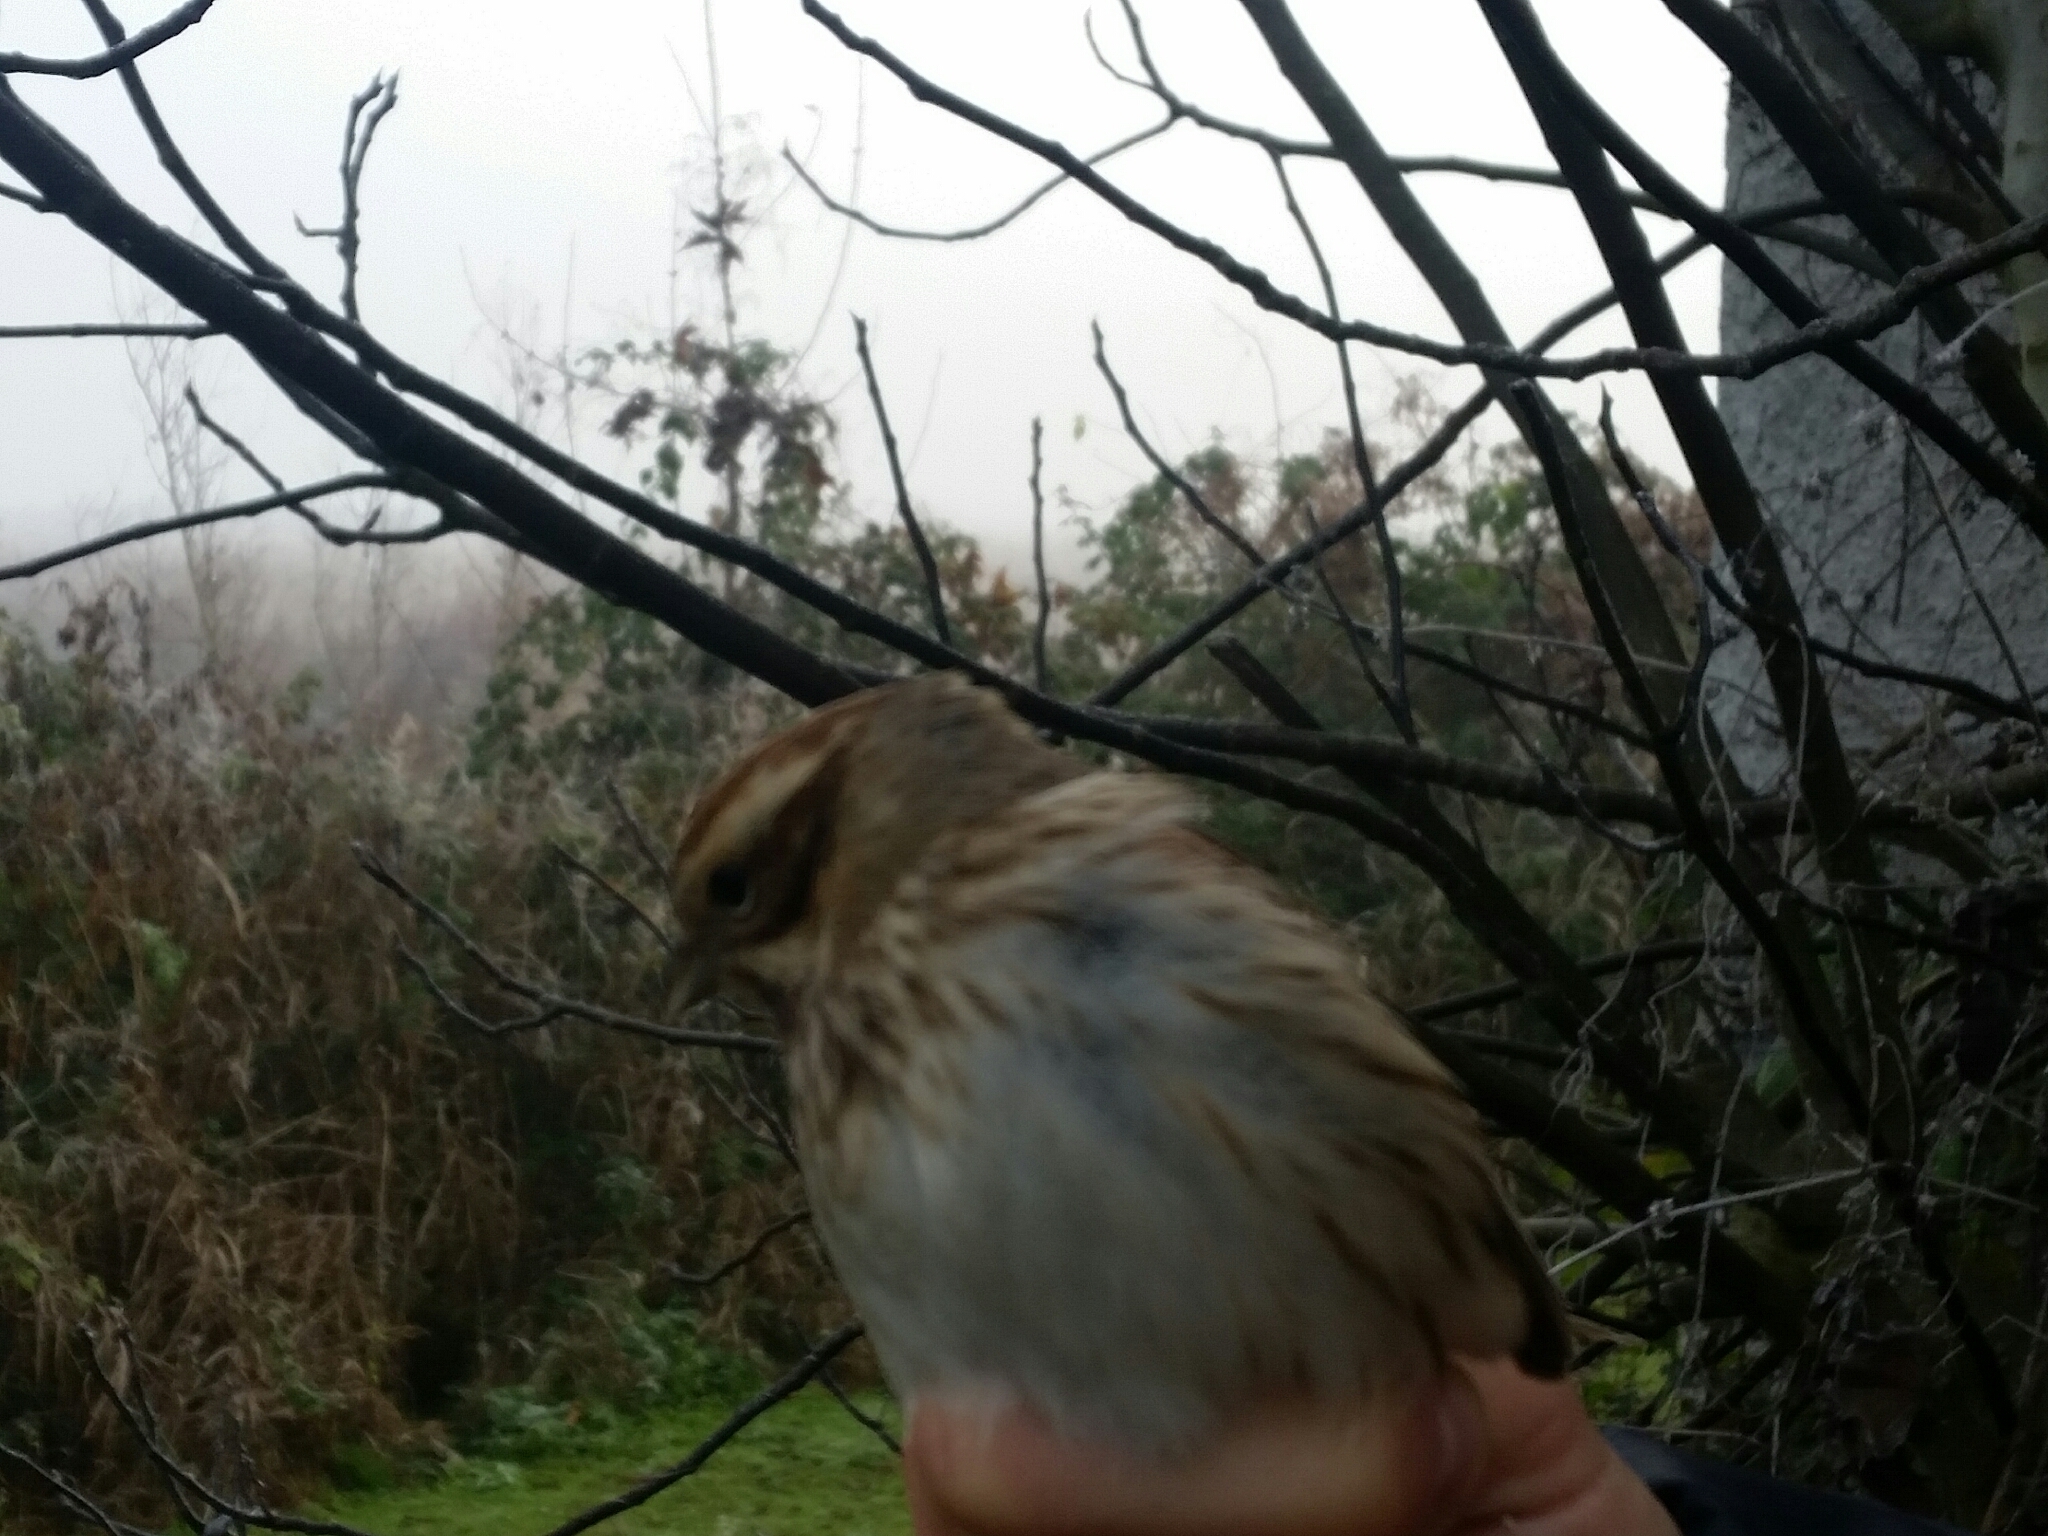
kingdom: Animalia
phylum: Chordata
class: Aves
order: Passeriformes
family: Emberizidae
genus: Emberiza
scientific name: Emberiza schoeniclus
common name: Reed bunting
